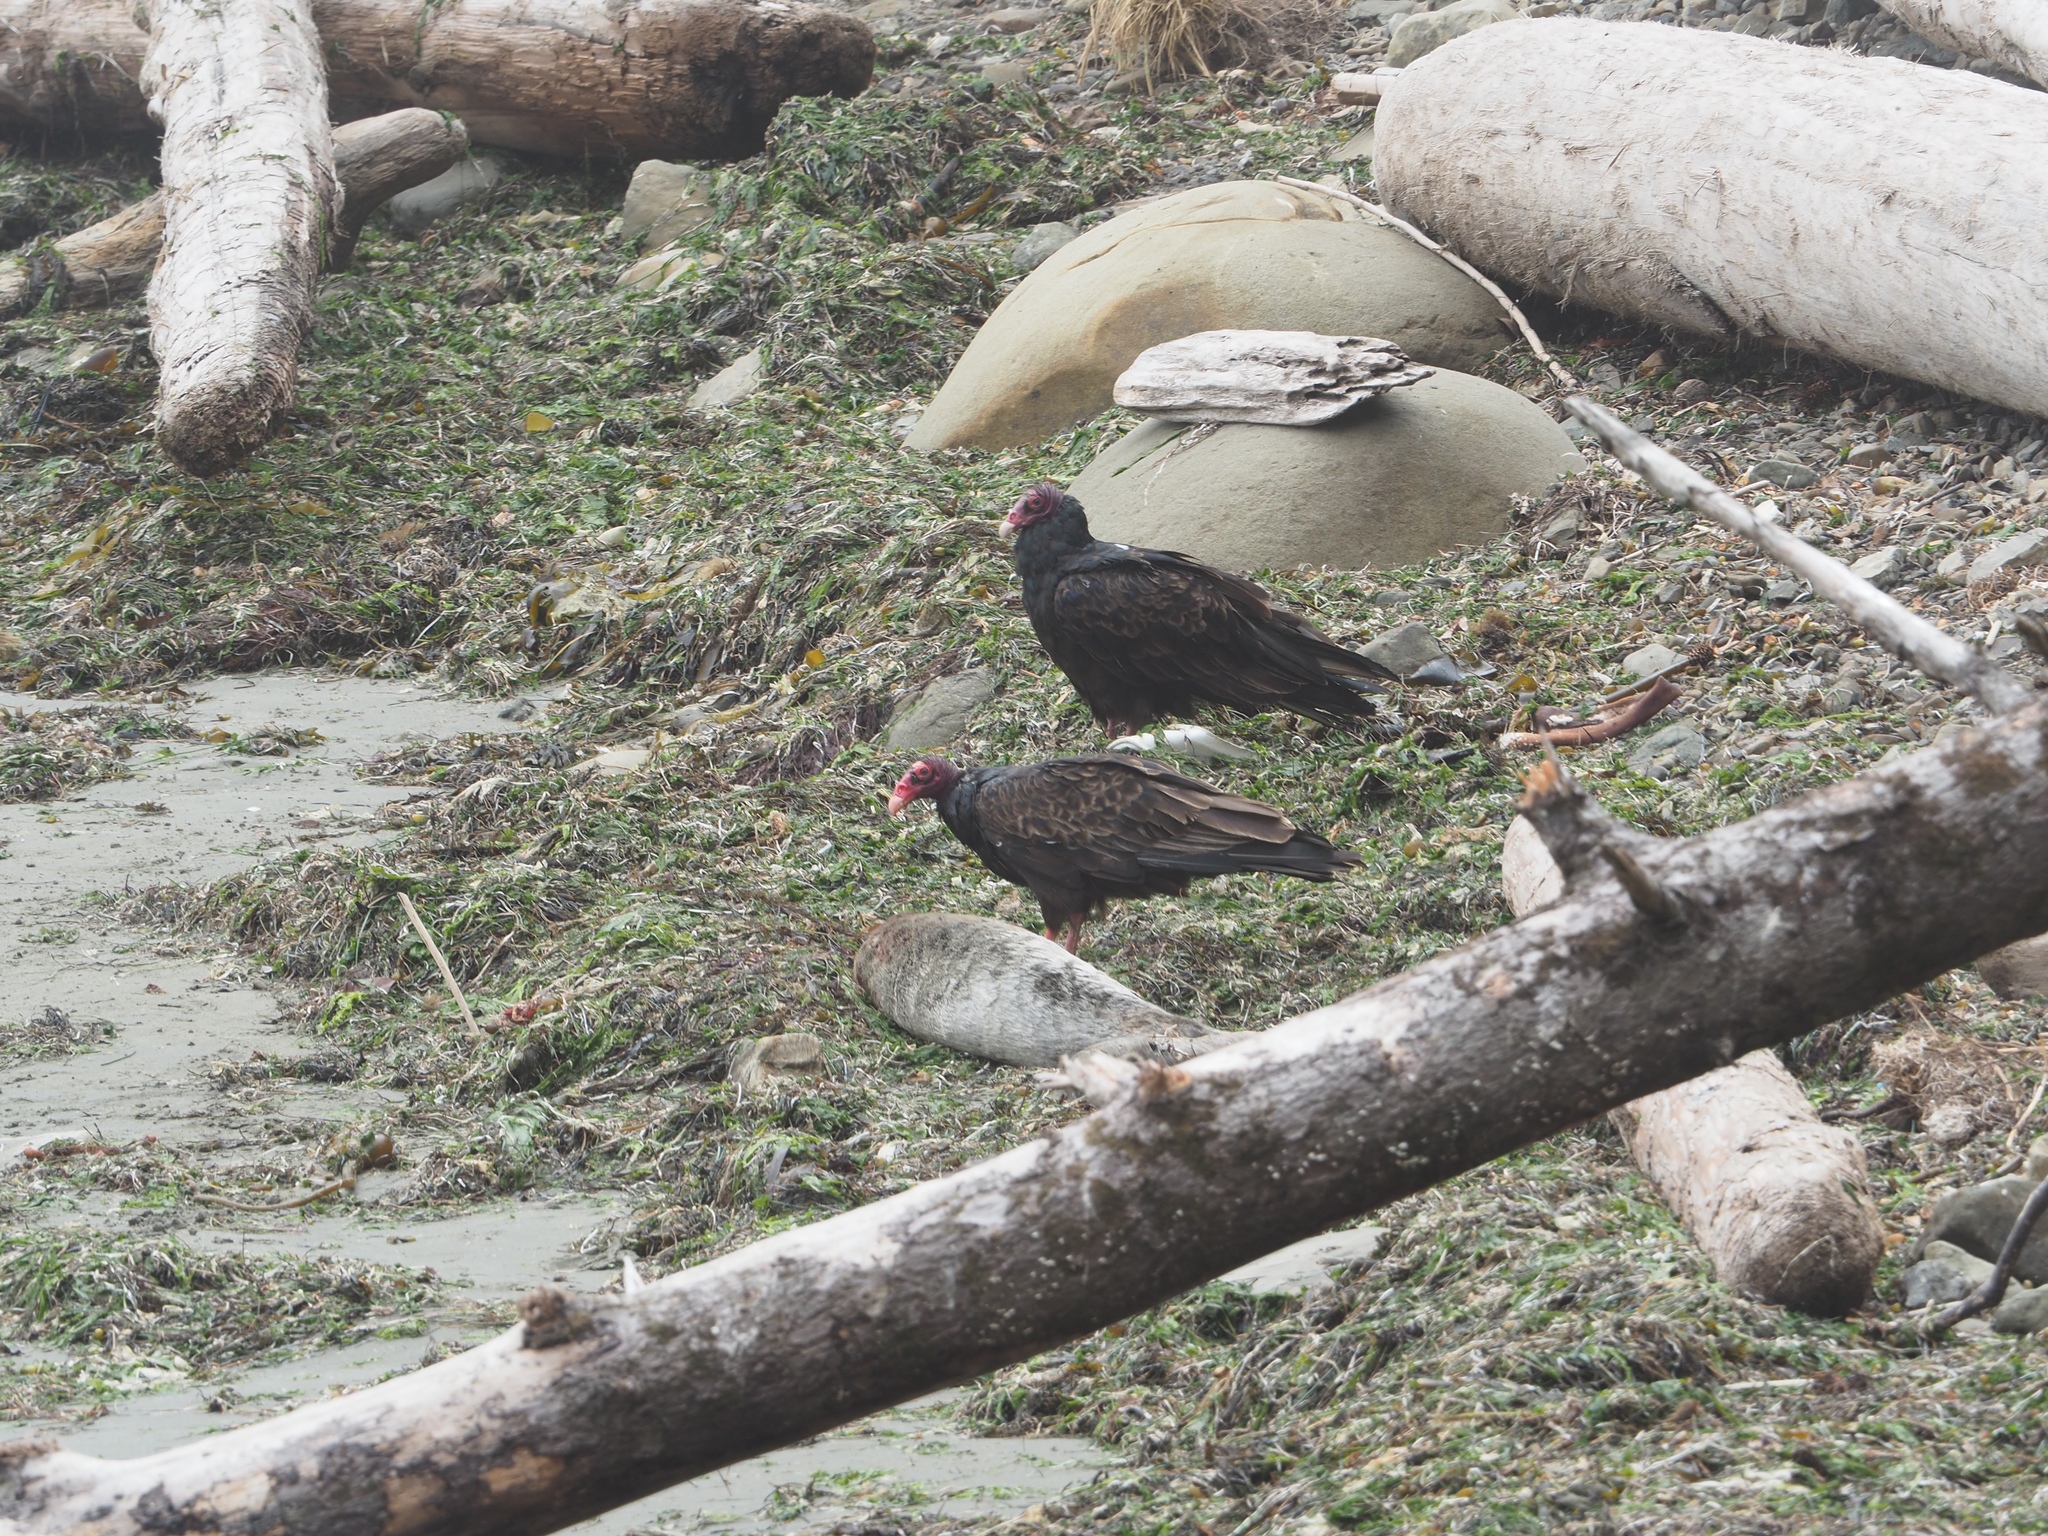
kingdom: Animalia
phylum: Chordata
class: Aves
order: Accipitriformes
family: Cathartidae
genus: Cathartes
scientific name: Cathartes aura
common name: Turkey vulture
